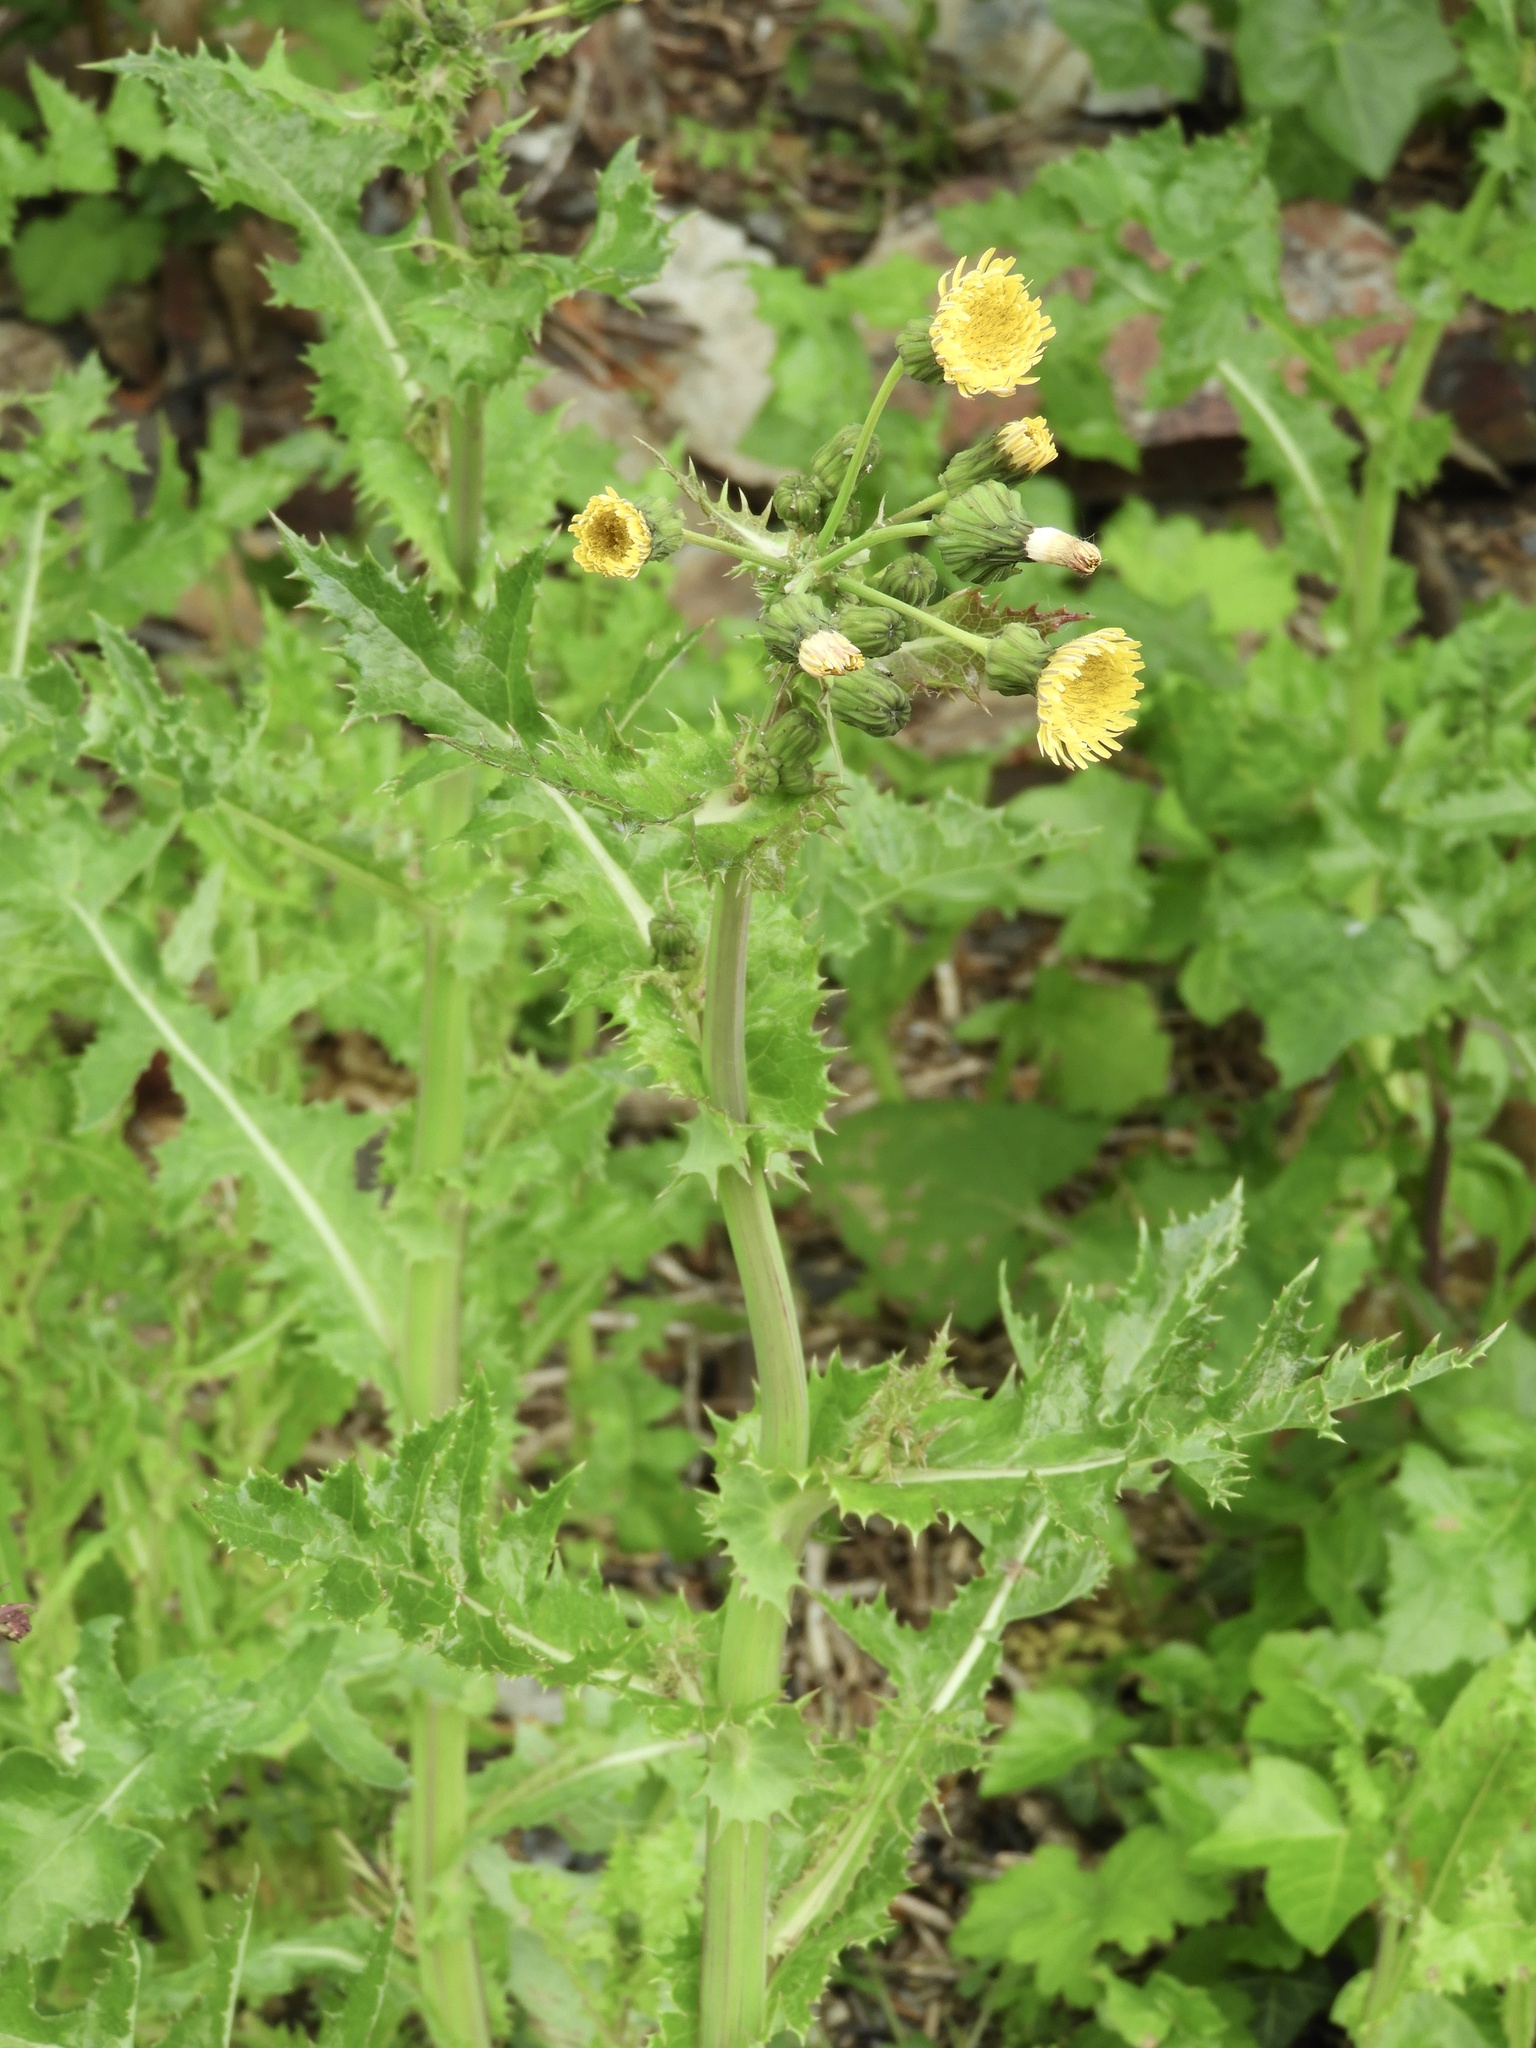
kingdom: Plantae
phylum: Tracheophyta
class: Magnoliopsida
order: Asterales
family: Asteraceae
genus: Sonchus
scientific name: Sonchus asper
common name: Prickly sow-thistle
